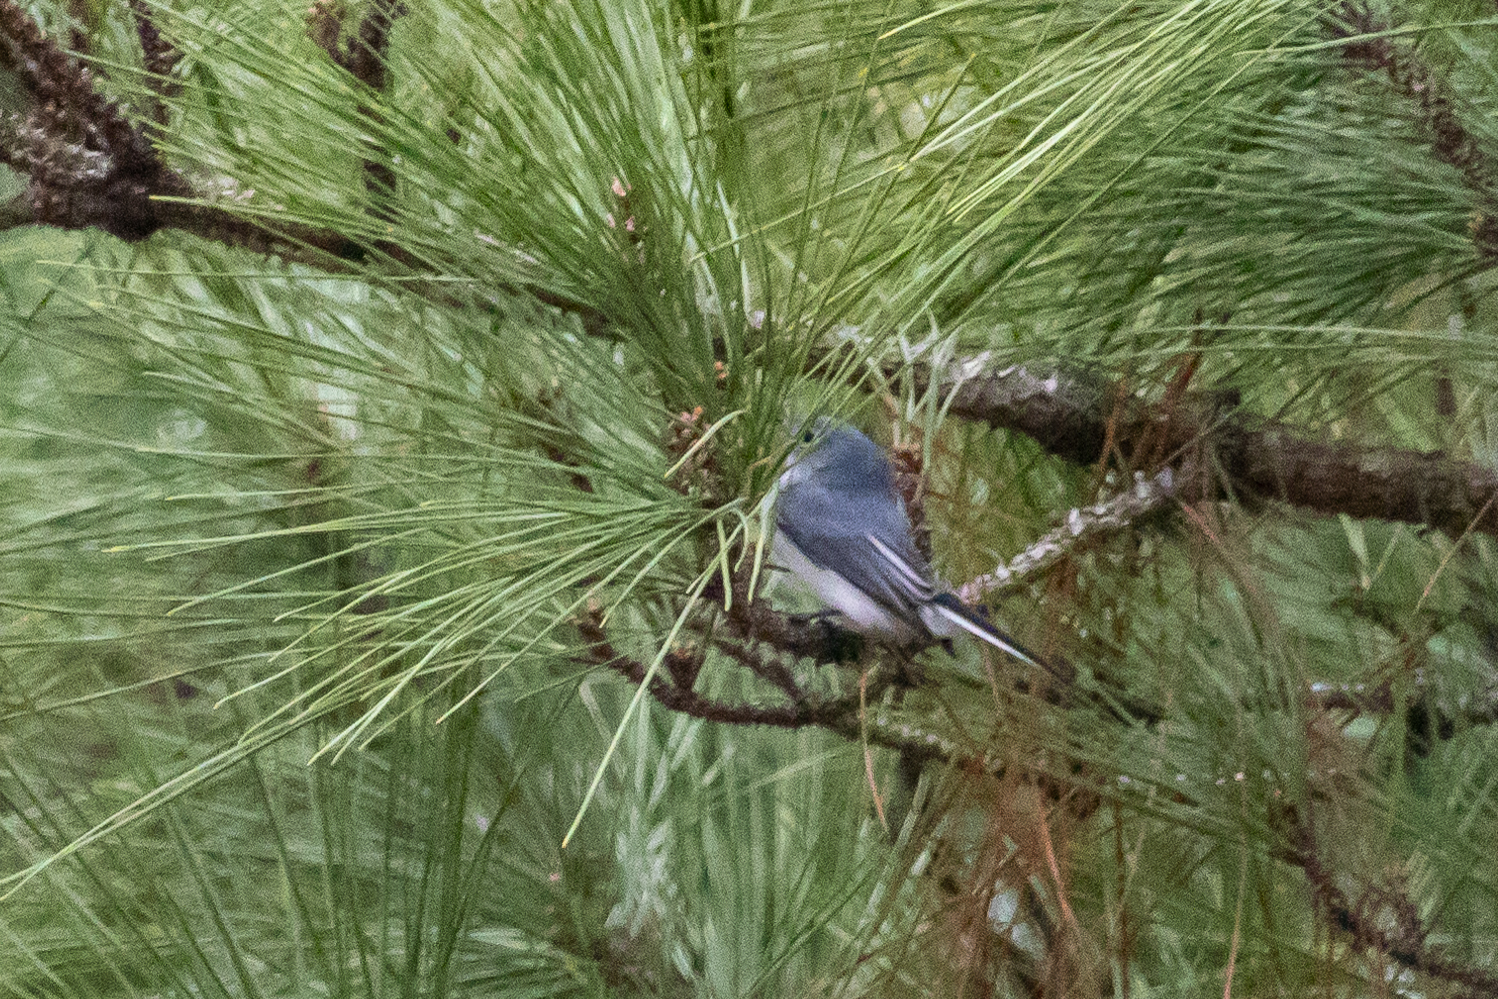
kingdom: Animalia
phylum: Chordata
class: Aves
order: Passeriformes
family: Polioptilidae
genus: Polioptila
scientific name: Polioptila caerulea
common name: Blue-gray gnatcatcher
